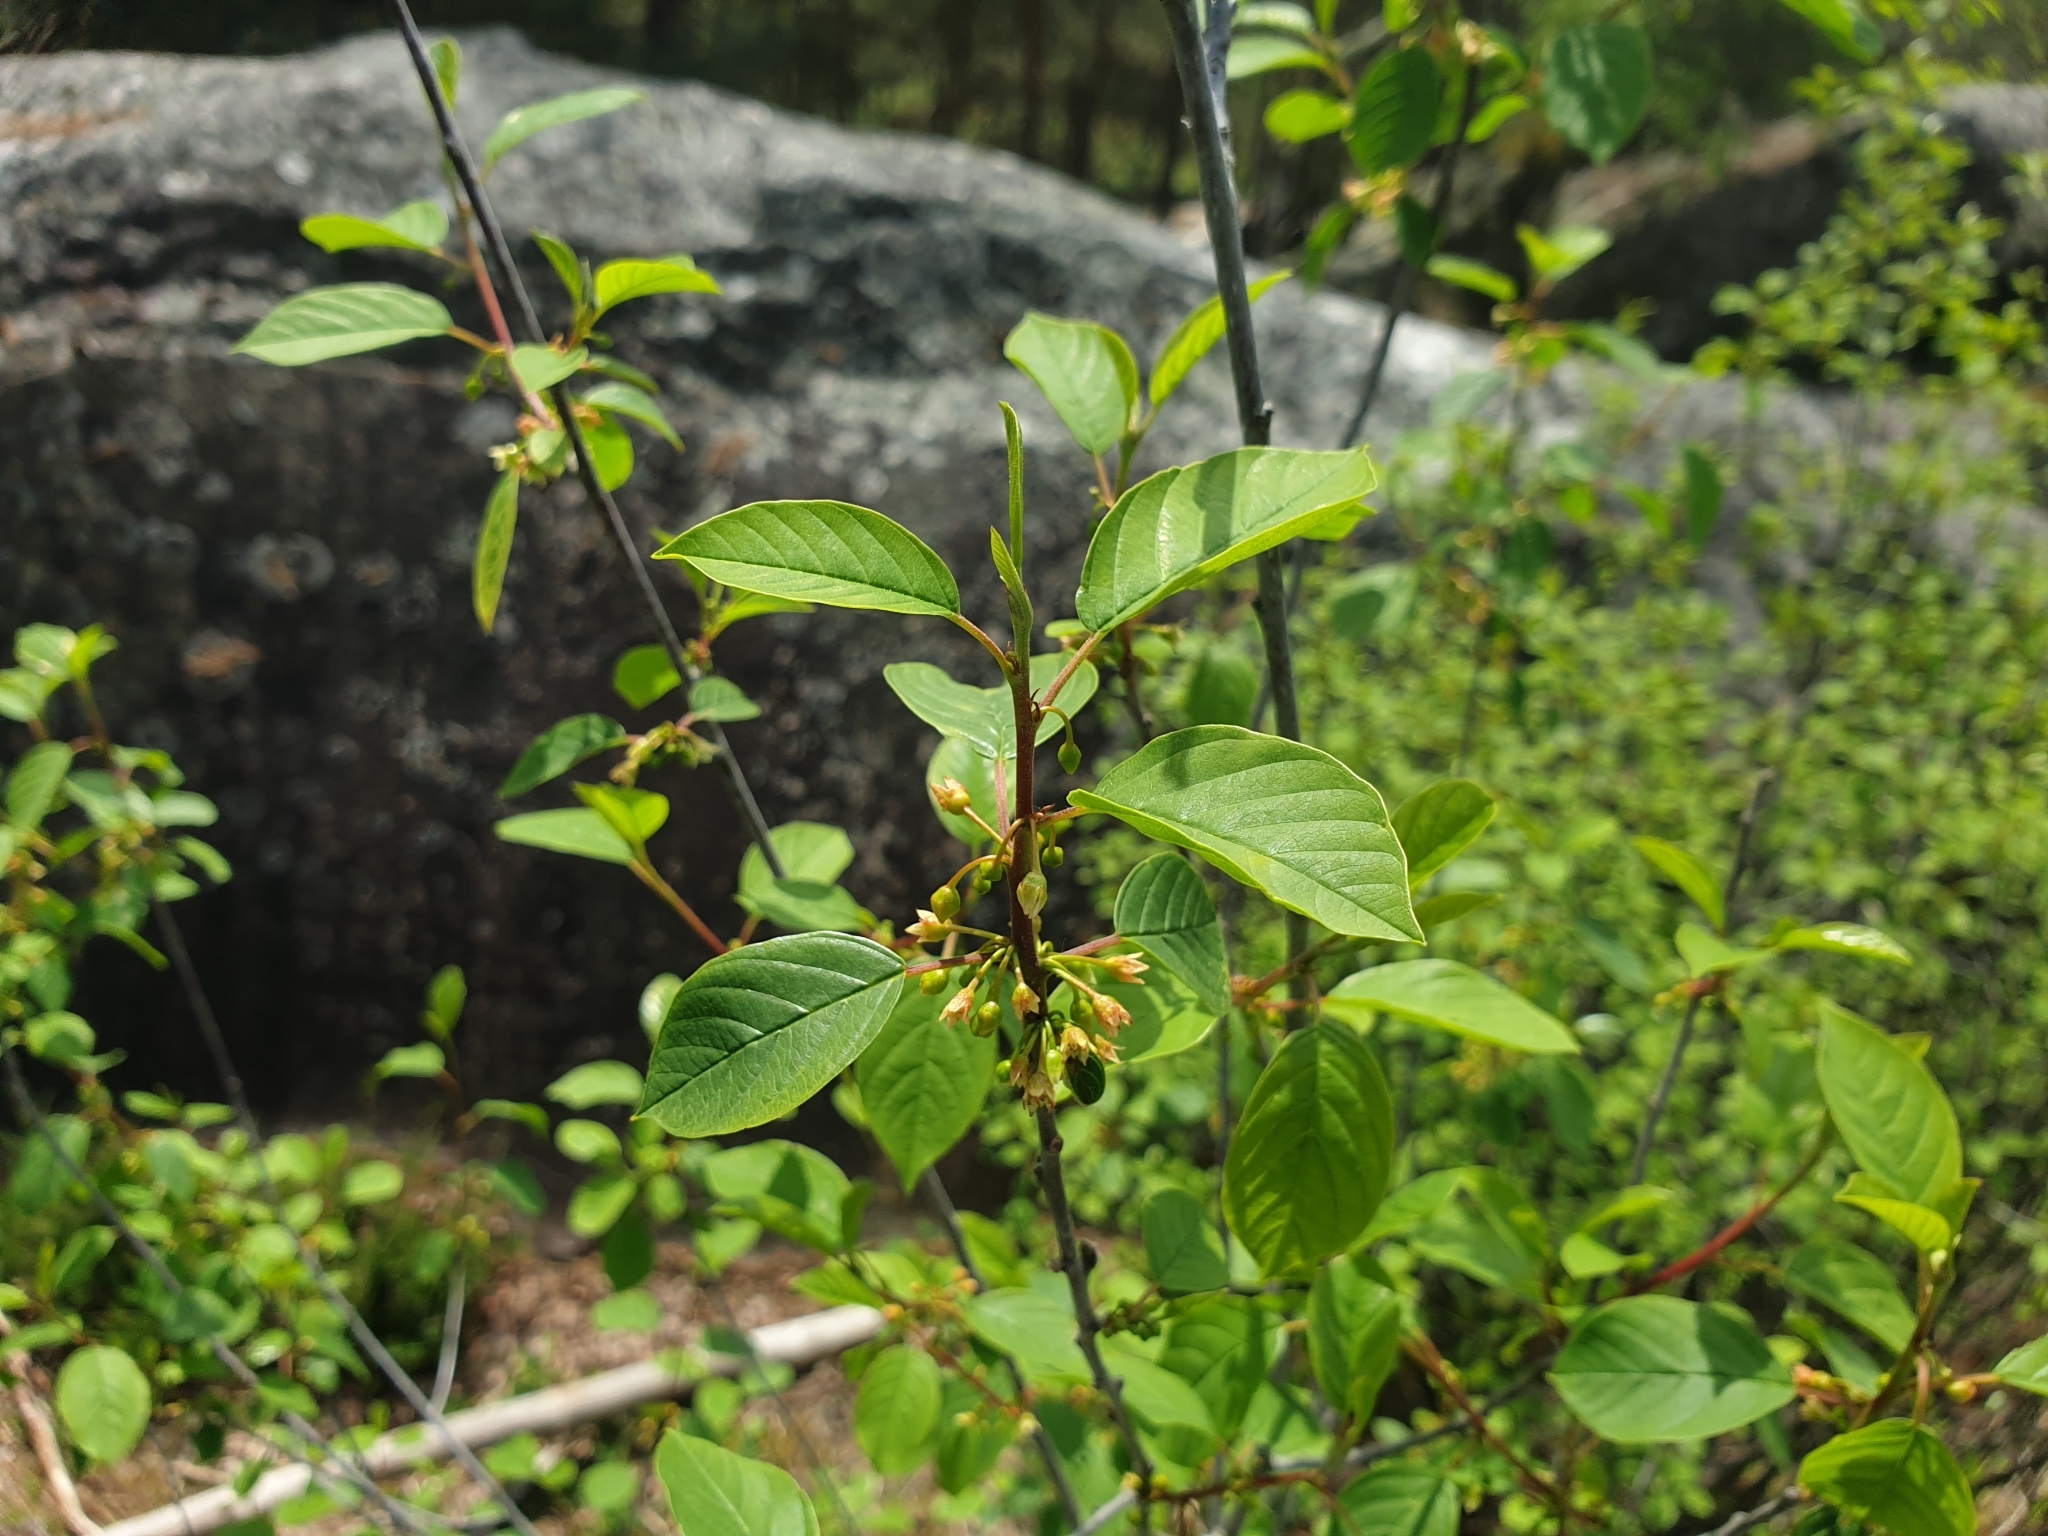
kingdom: Plantae
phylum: Tracheophyta
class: Magnoliopsida
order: Rosales
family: Rhamnaceae
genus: Frangula
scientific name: Frangula alnus
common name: Alder buckthorn
